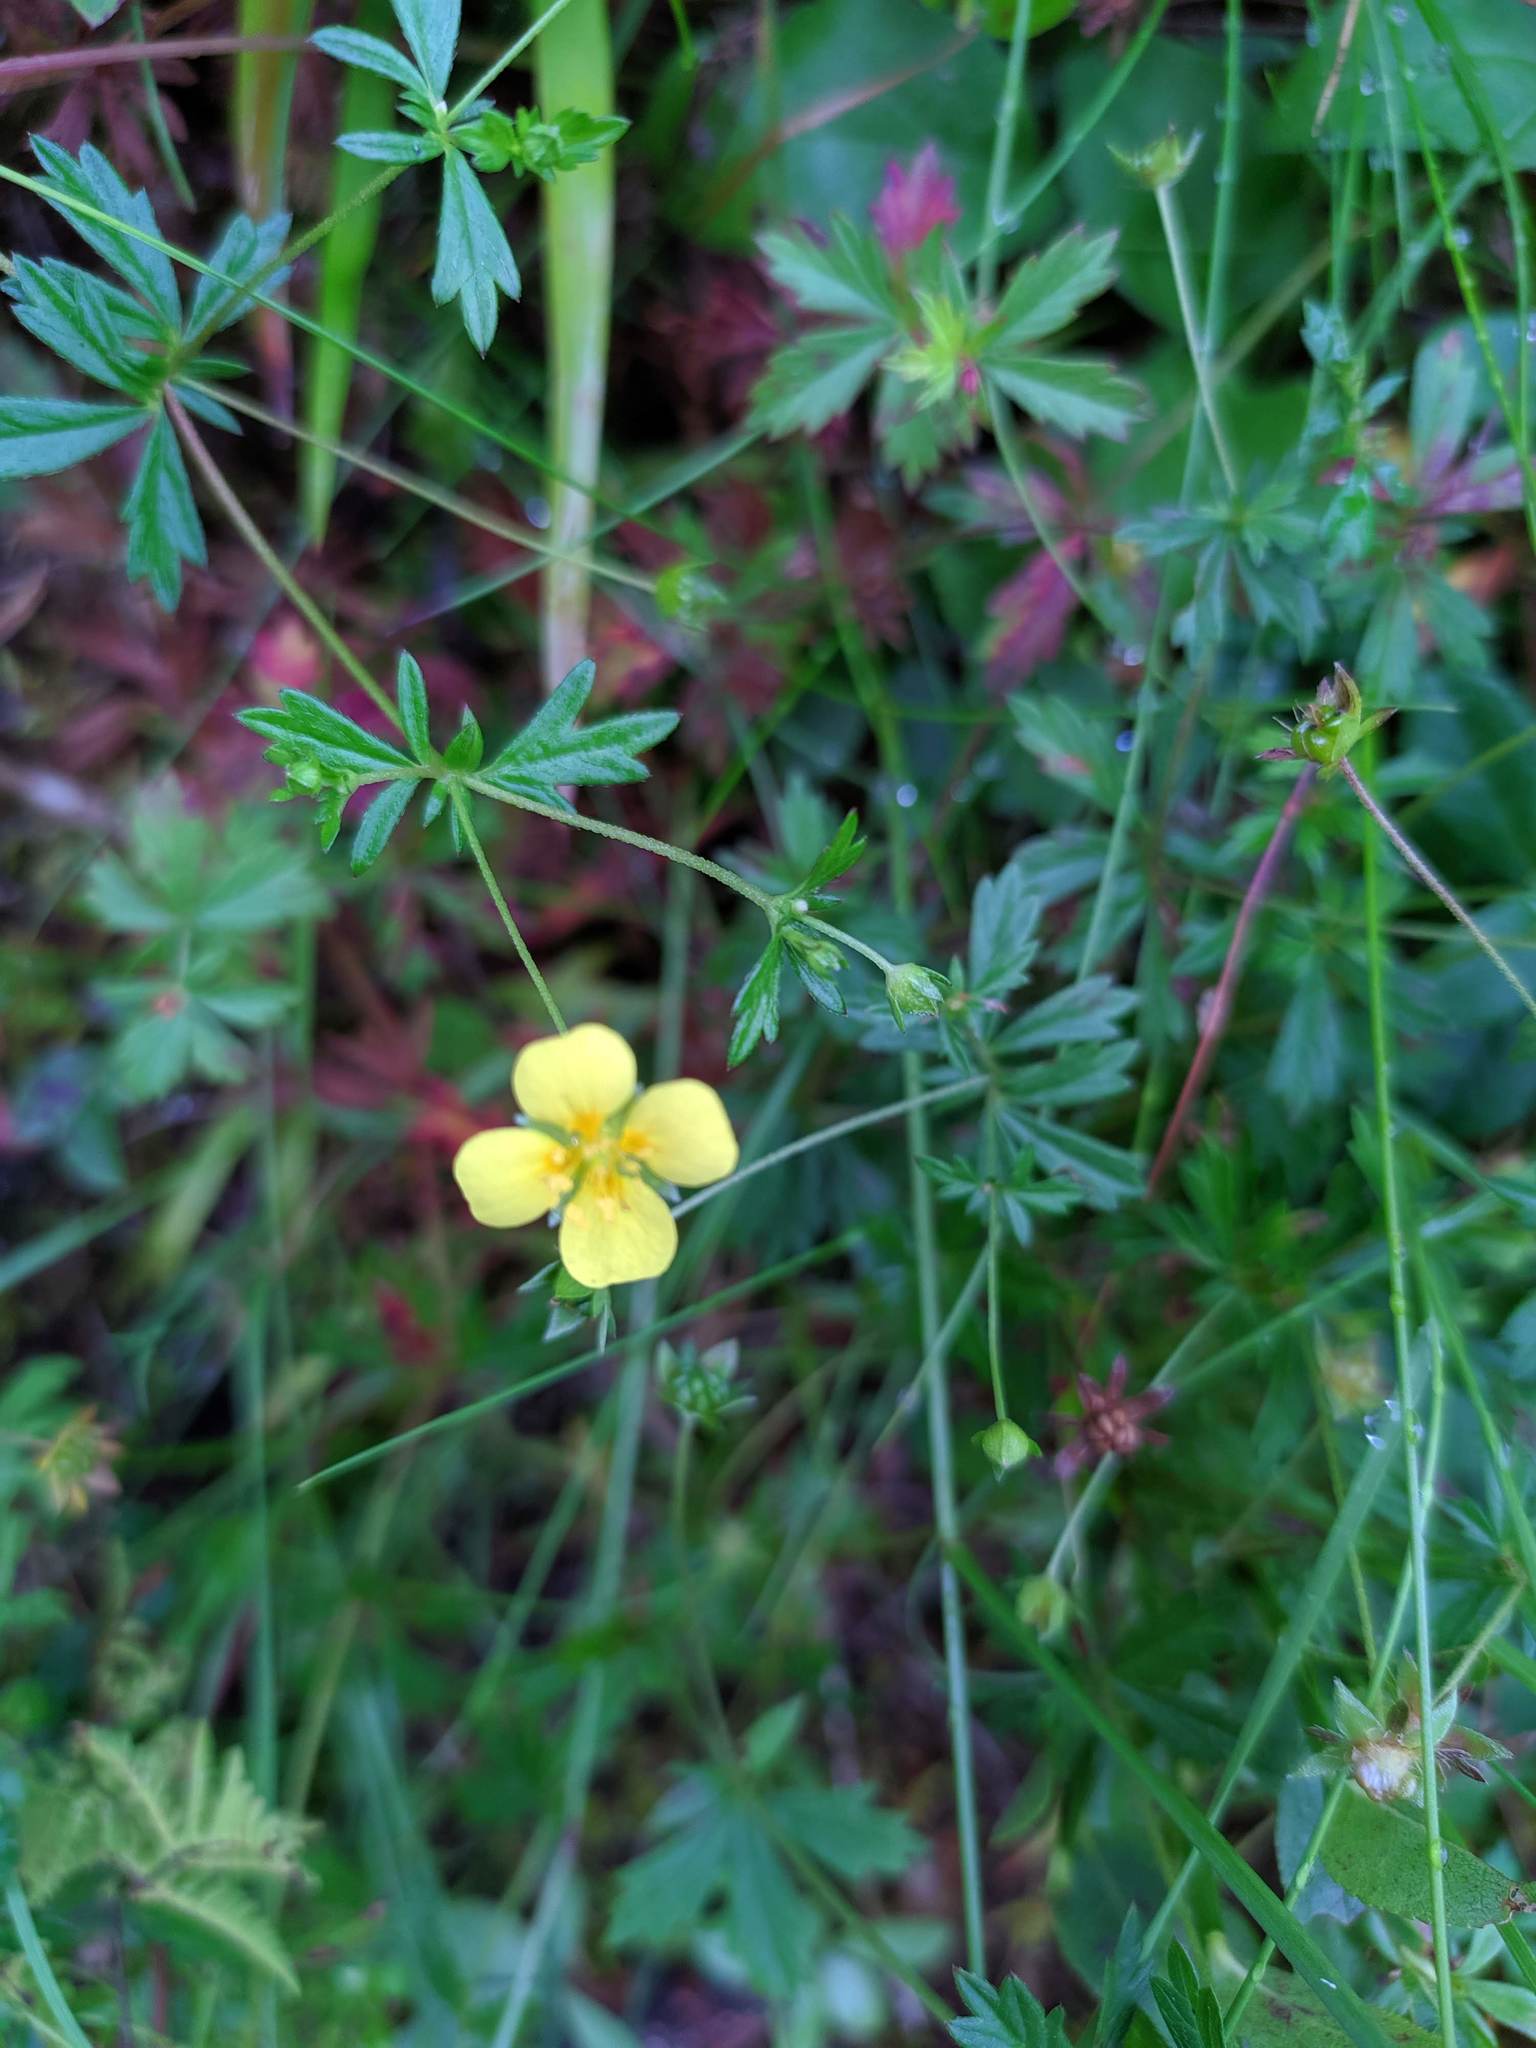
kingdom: Plantae
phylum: Tracheophyta
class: Magnoliopsida
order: Rosales
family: Rosaceae
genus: Potentilla
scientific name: Potentilla erecta
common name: Tormentil
